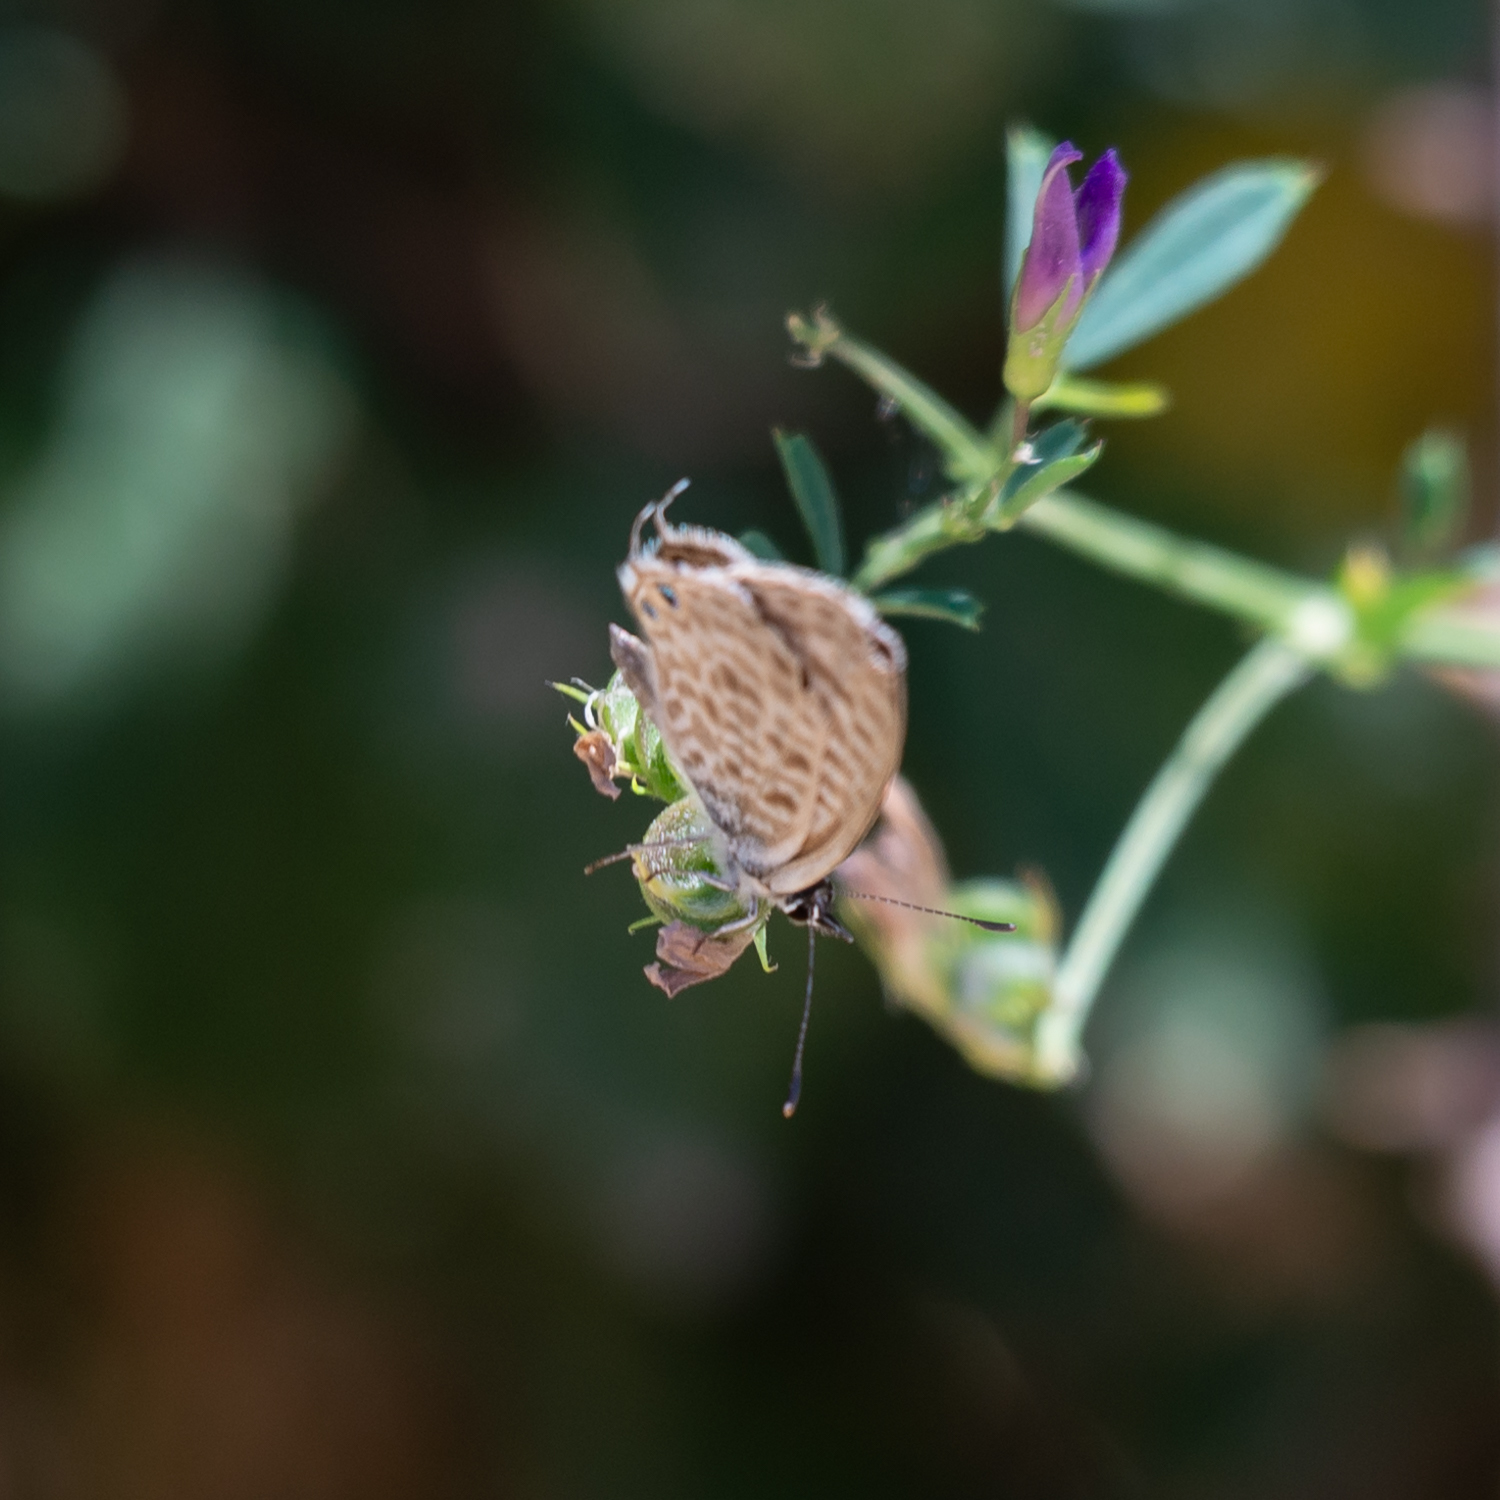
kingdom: Animalia
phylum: Arthropoda
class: Insecta
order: Lepidoptera
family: Lycaenidae
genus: Leptotes
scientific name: Leptotes pirithous
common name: Lang's short-tailed blue
